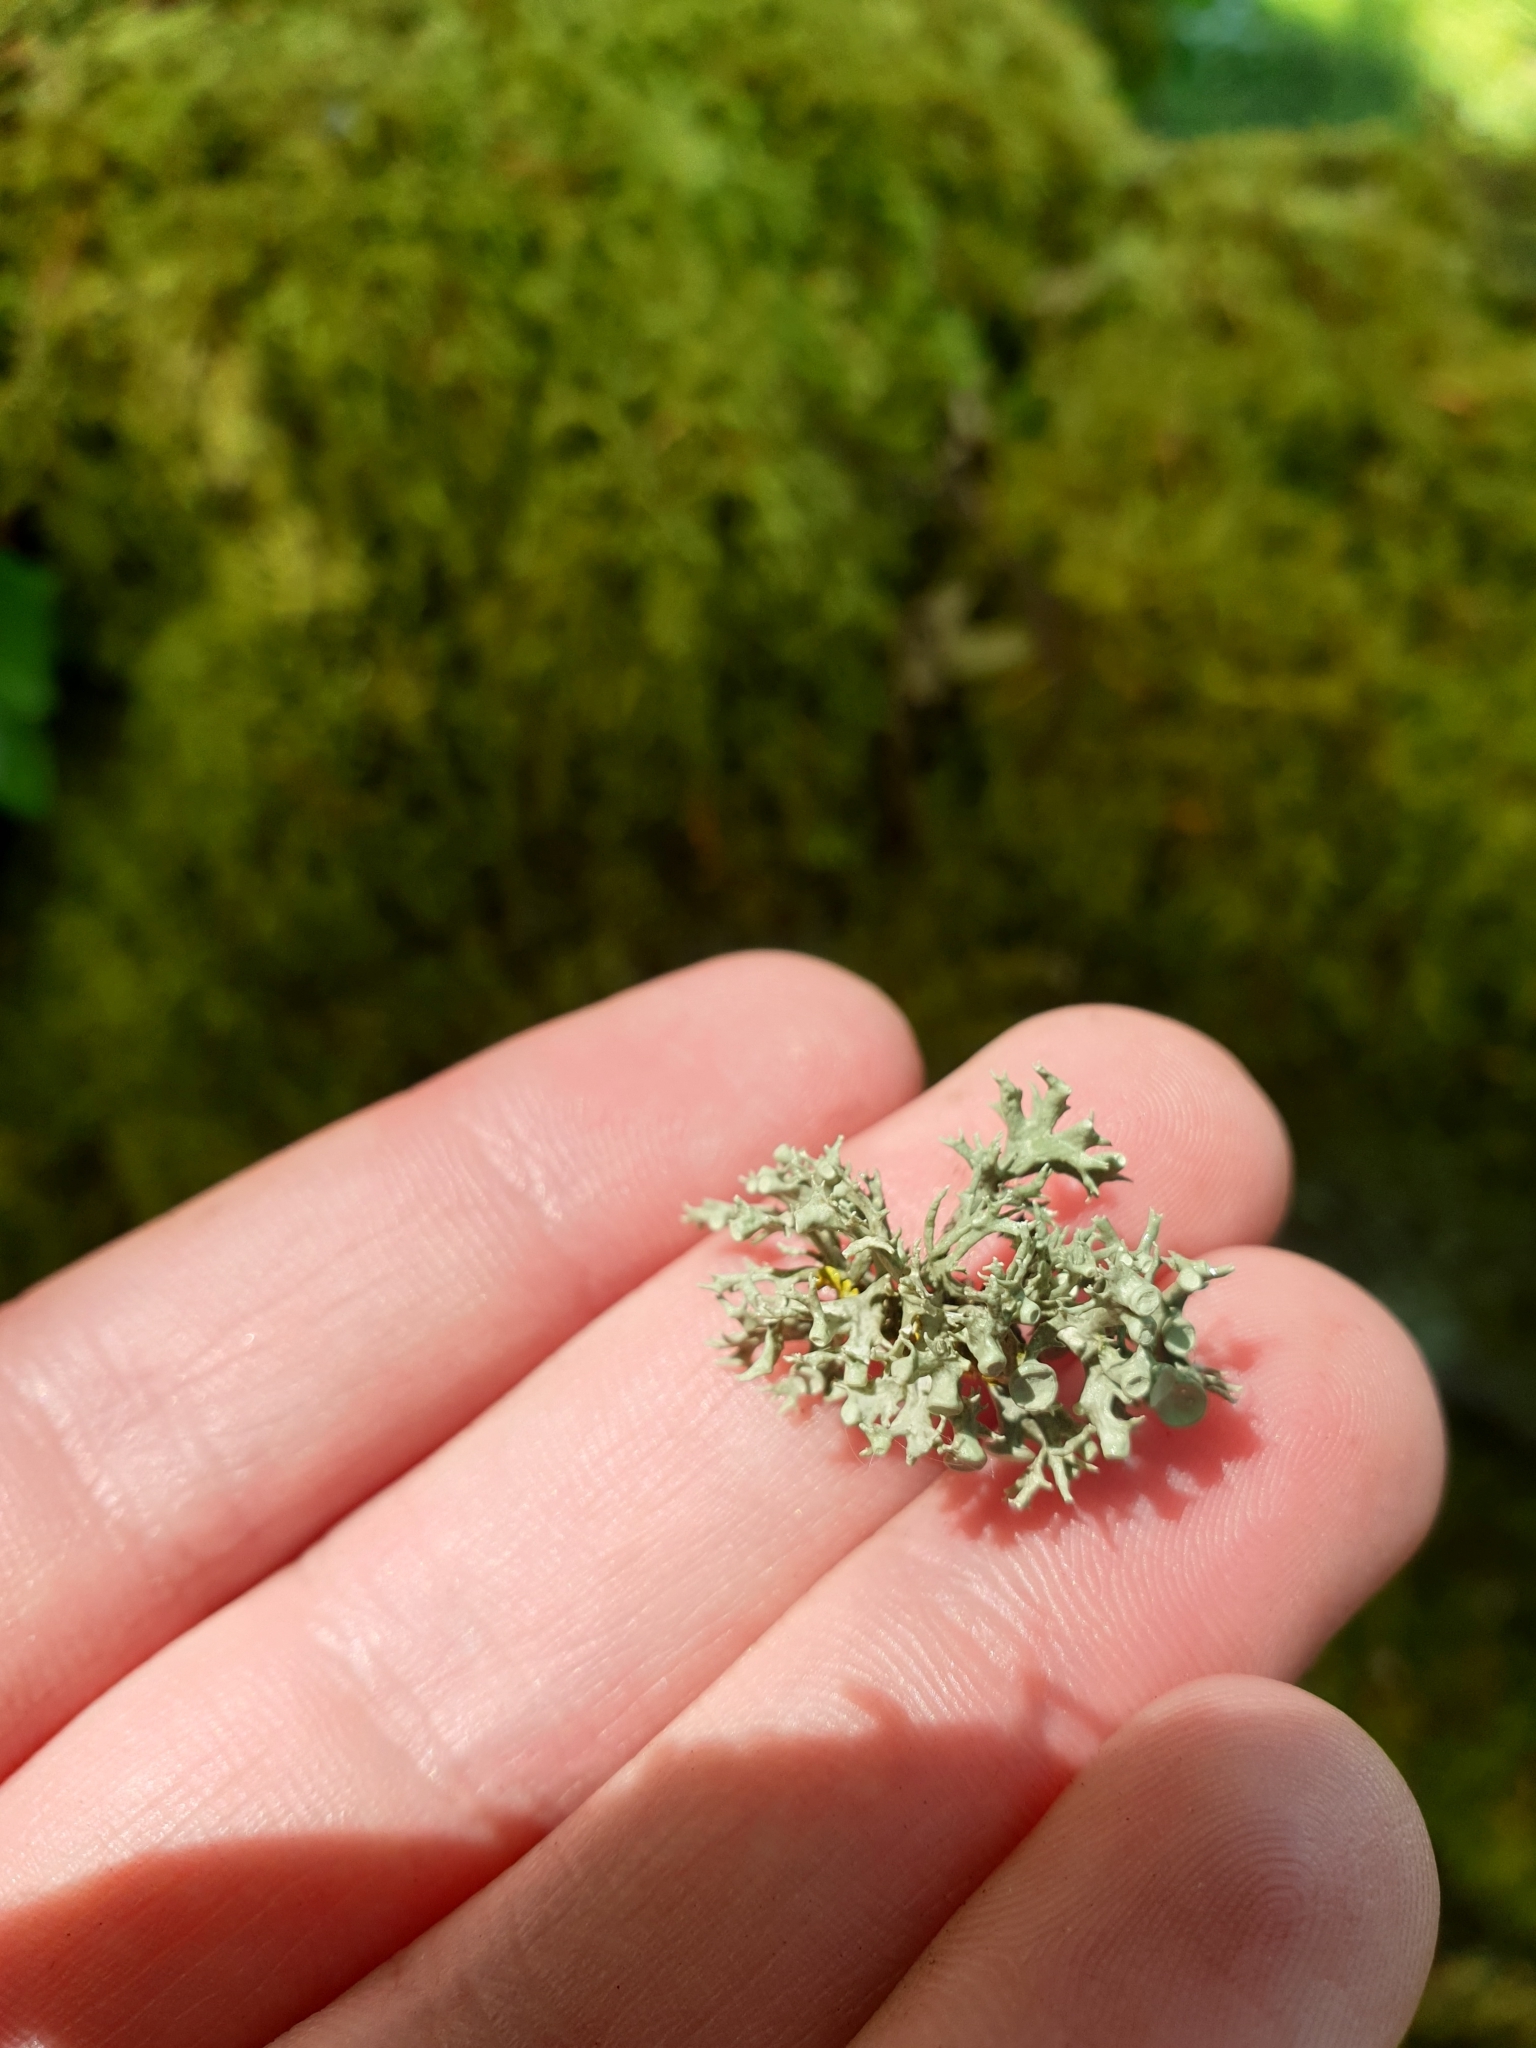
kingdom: Fungi
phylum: Ascomycota
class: Lecanoromycetes
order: Lecanorales
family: Ramalinaceae
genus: Ramalina
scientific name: Ramalina fastigiata
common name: Dotted ribbon lichen
